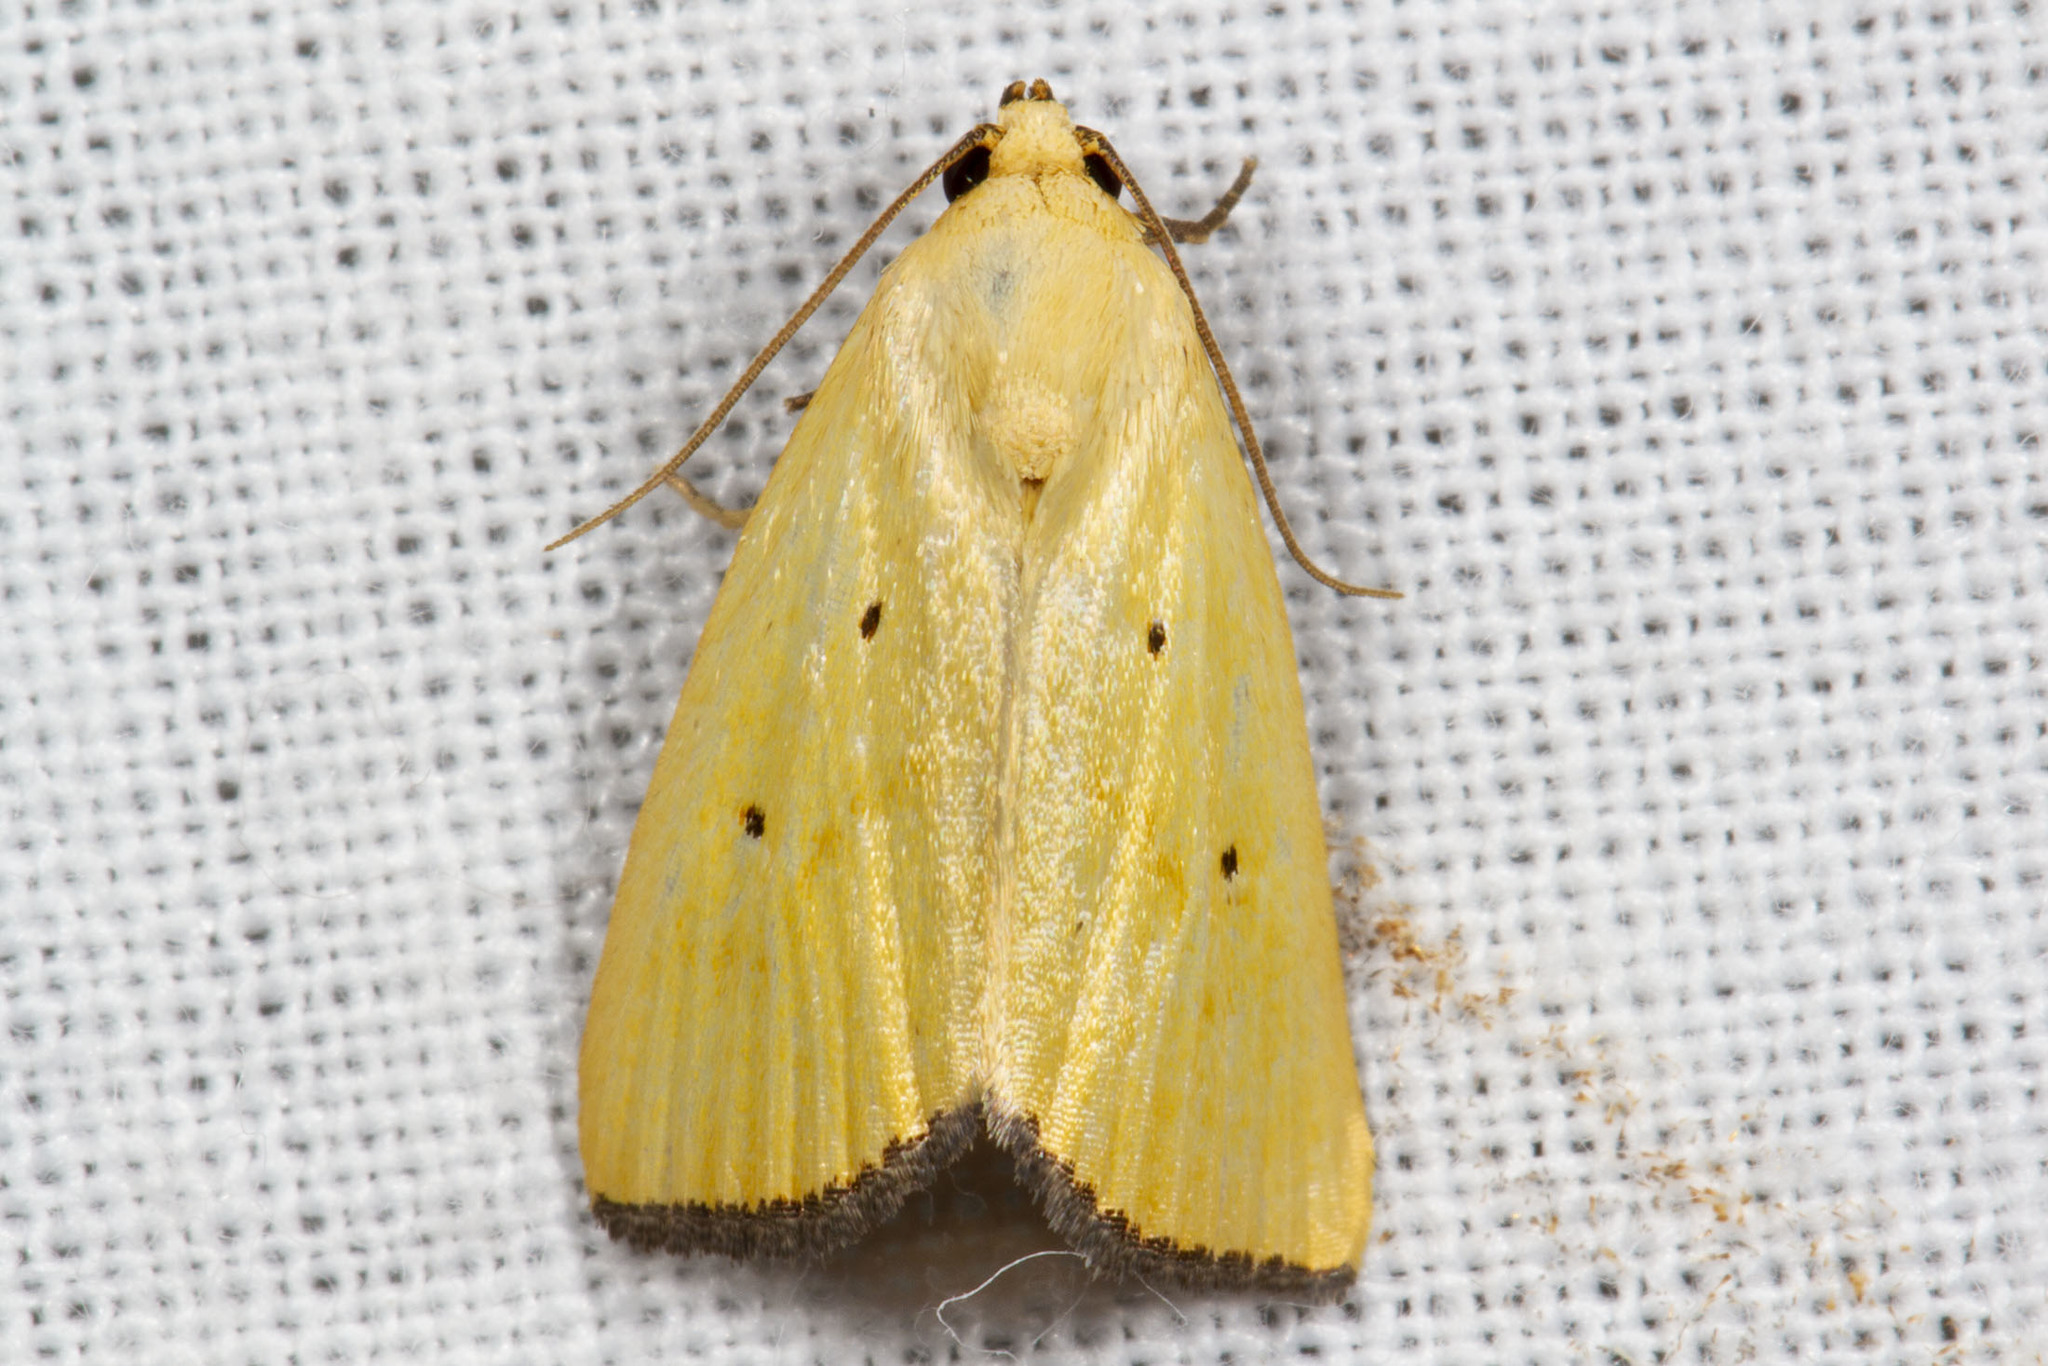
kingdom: Animalia
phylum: Arthropoda
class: Insecta
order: Lepidoptera
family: Noctuidae
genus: Marimatha
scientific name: Marimatha nigrofimbria
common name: Black-bordered lemon moth
